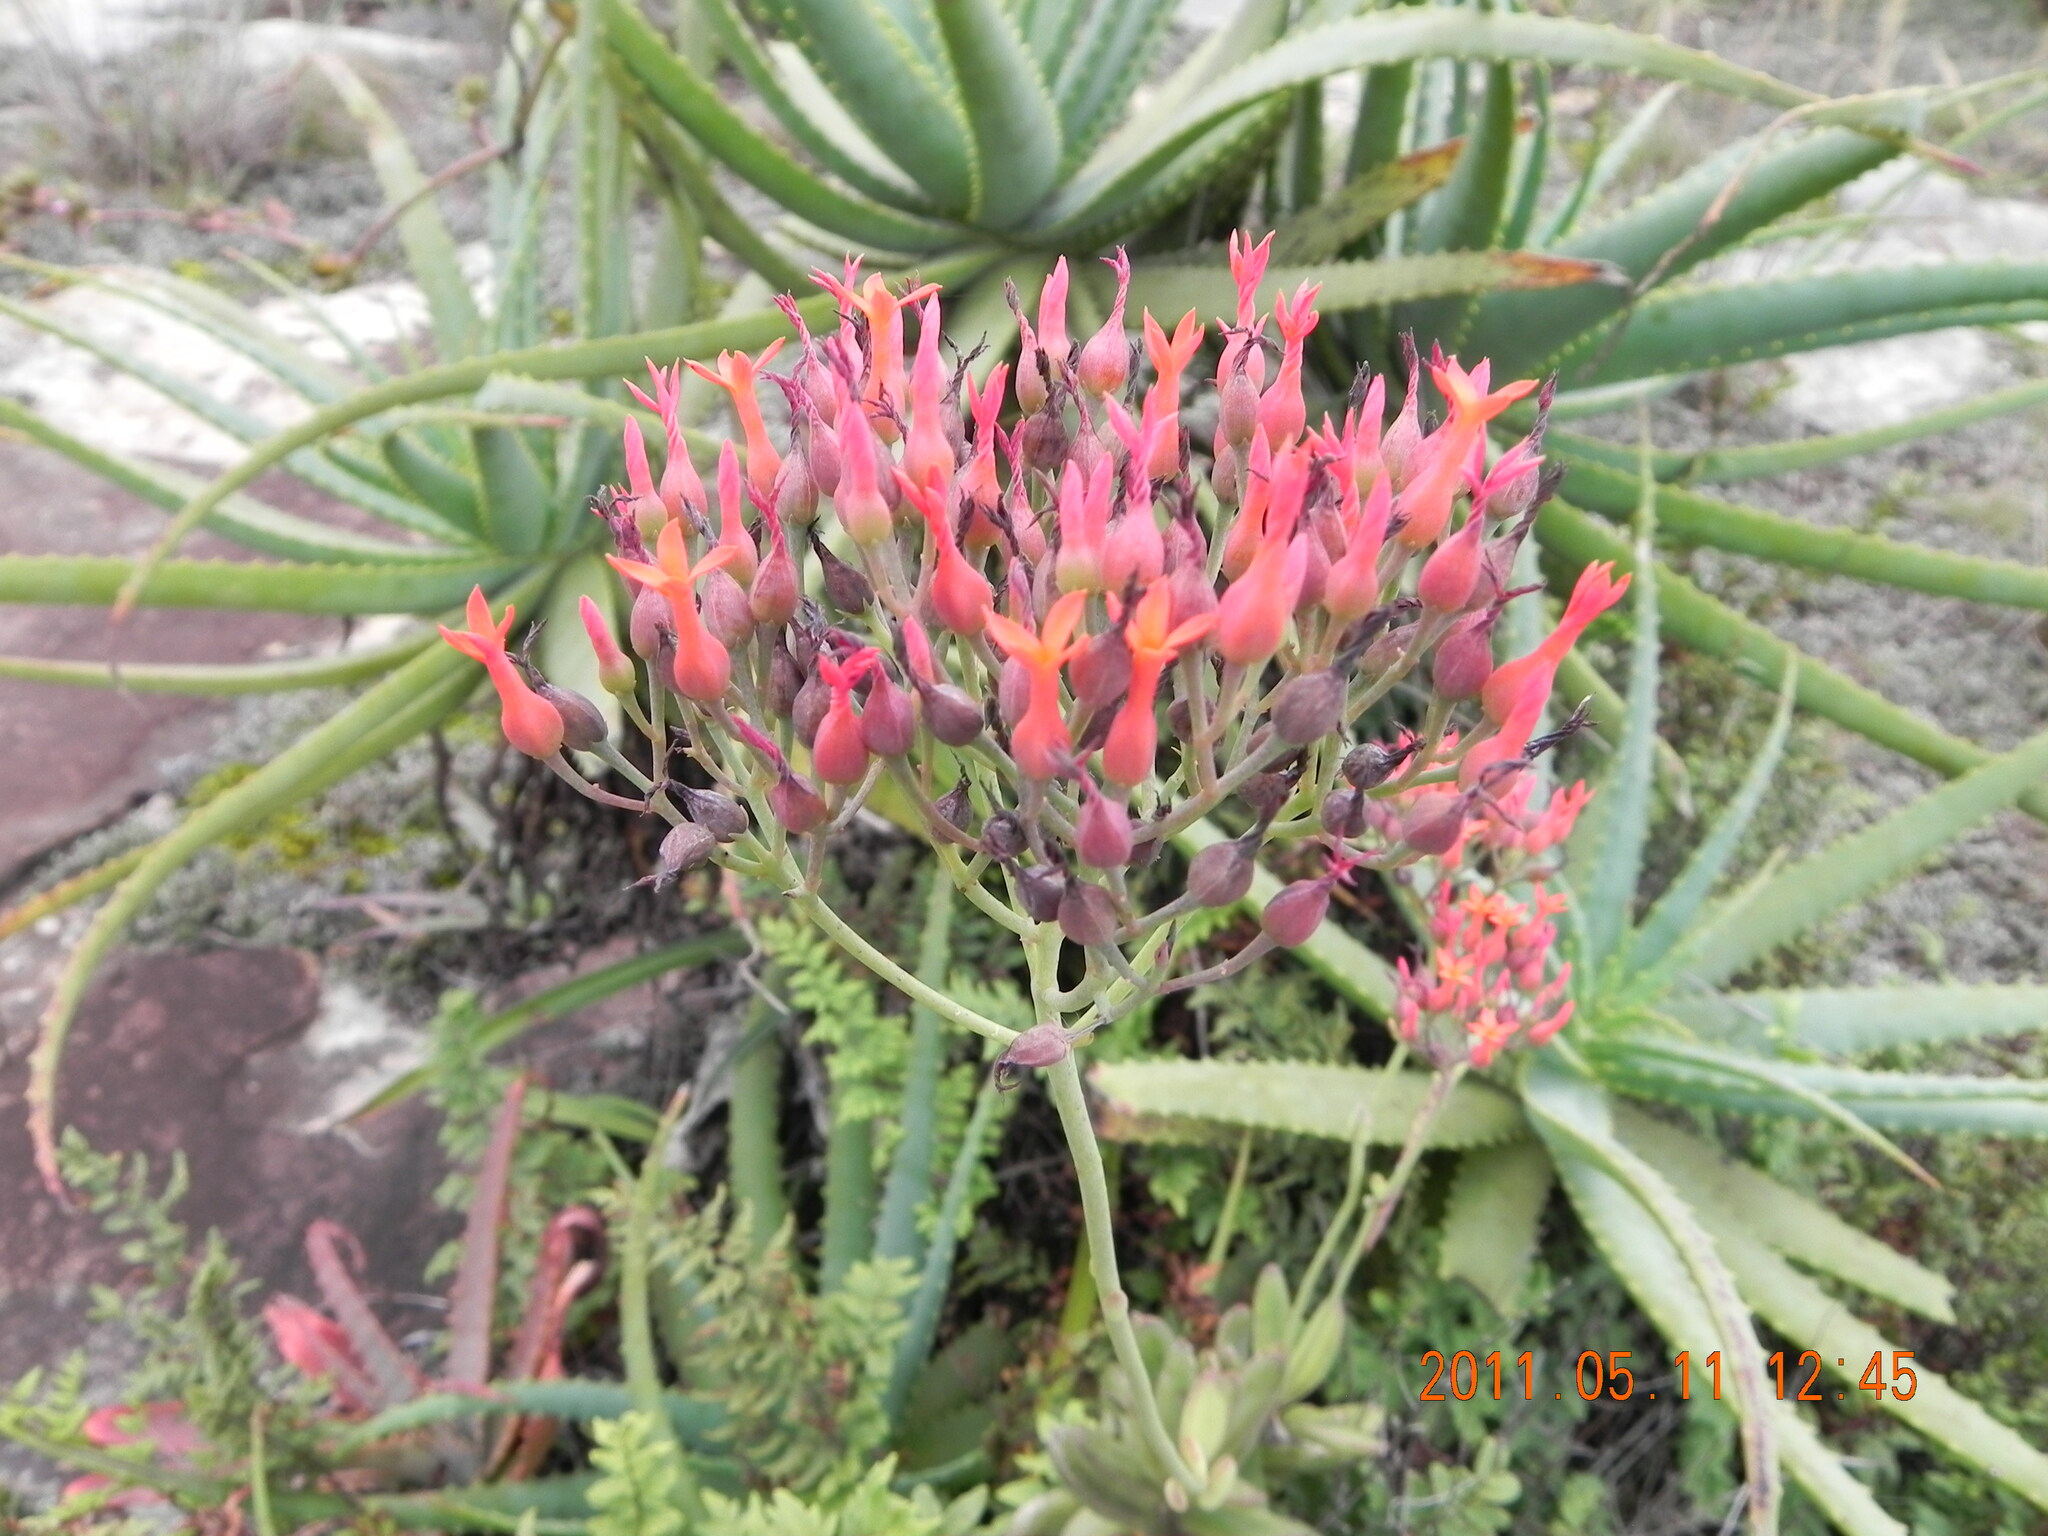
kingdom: Plantae
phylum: Tracheophyta
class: Magnoliopsida
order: Saxifragales
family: Crassulaceae
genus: Kalanchoe
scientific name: Kalanchoe rotundifolia
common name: Common kalanchoe
